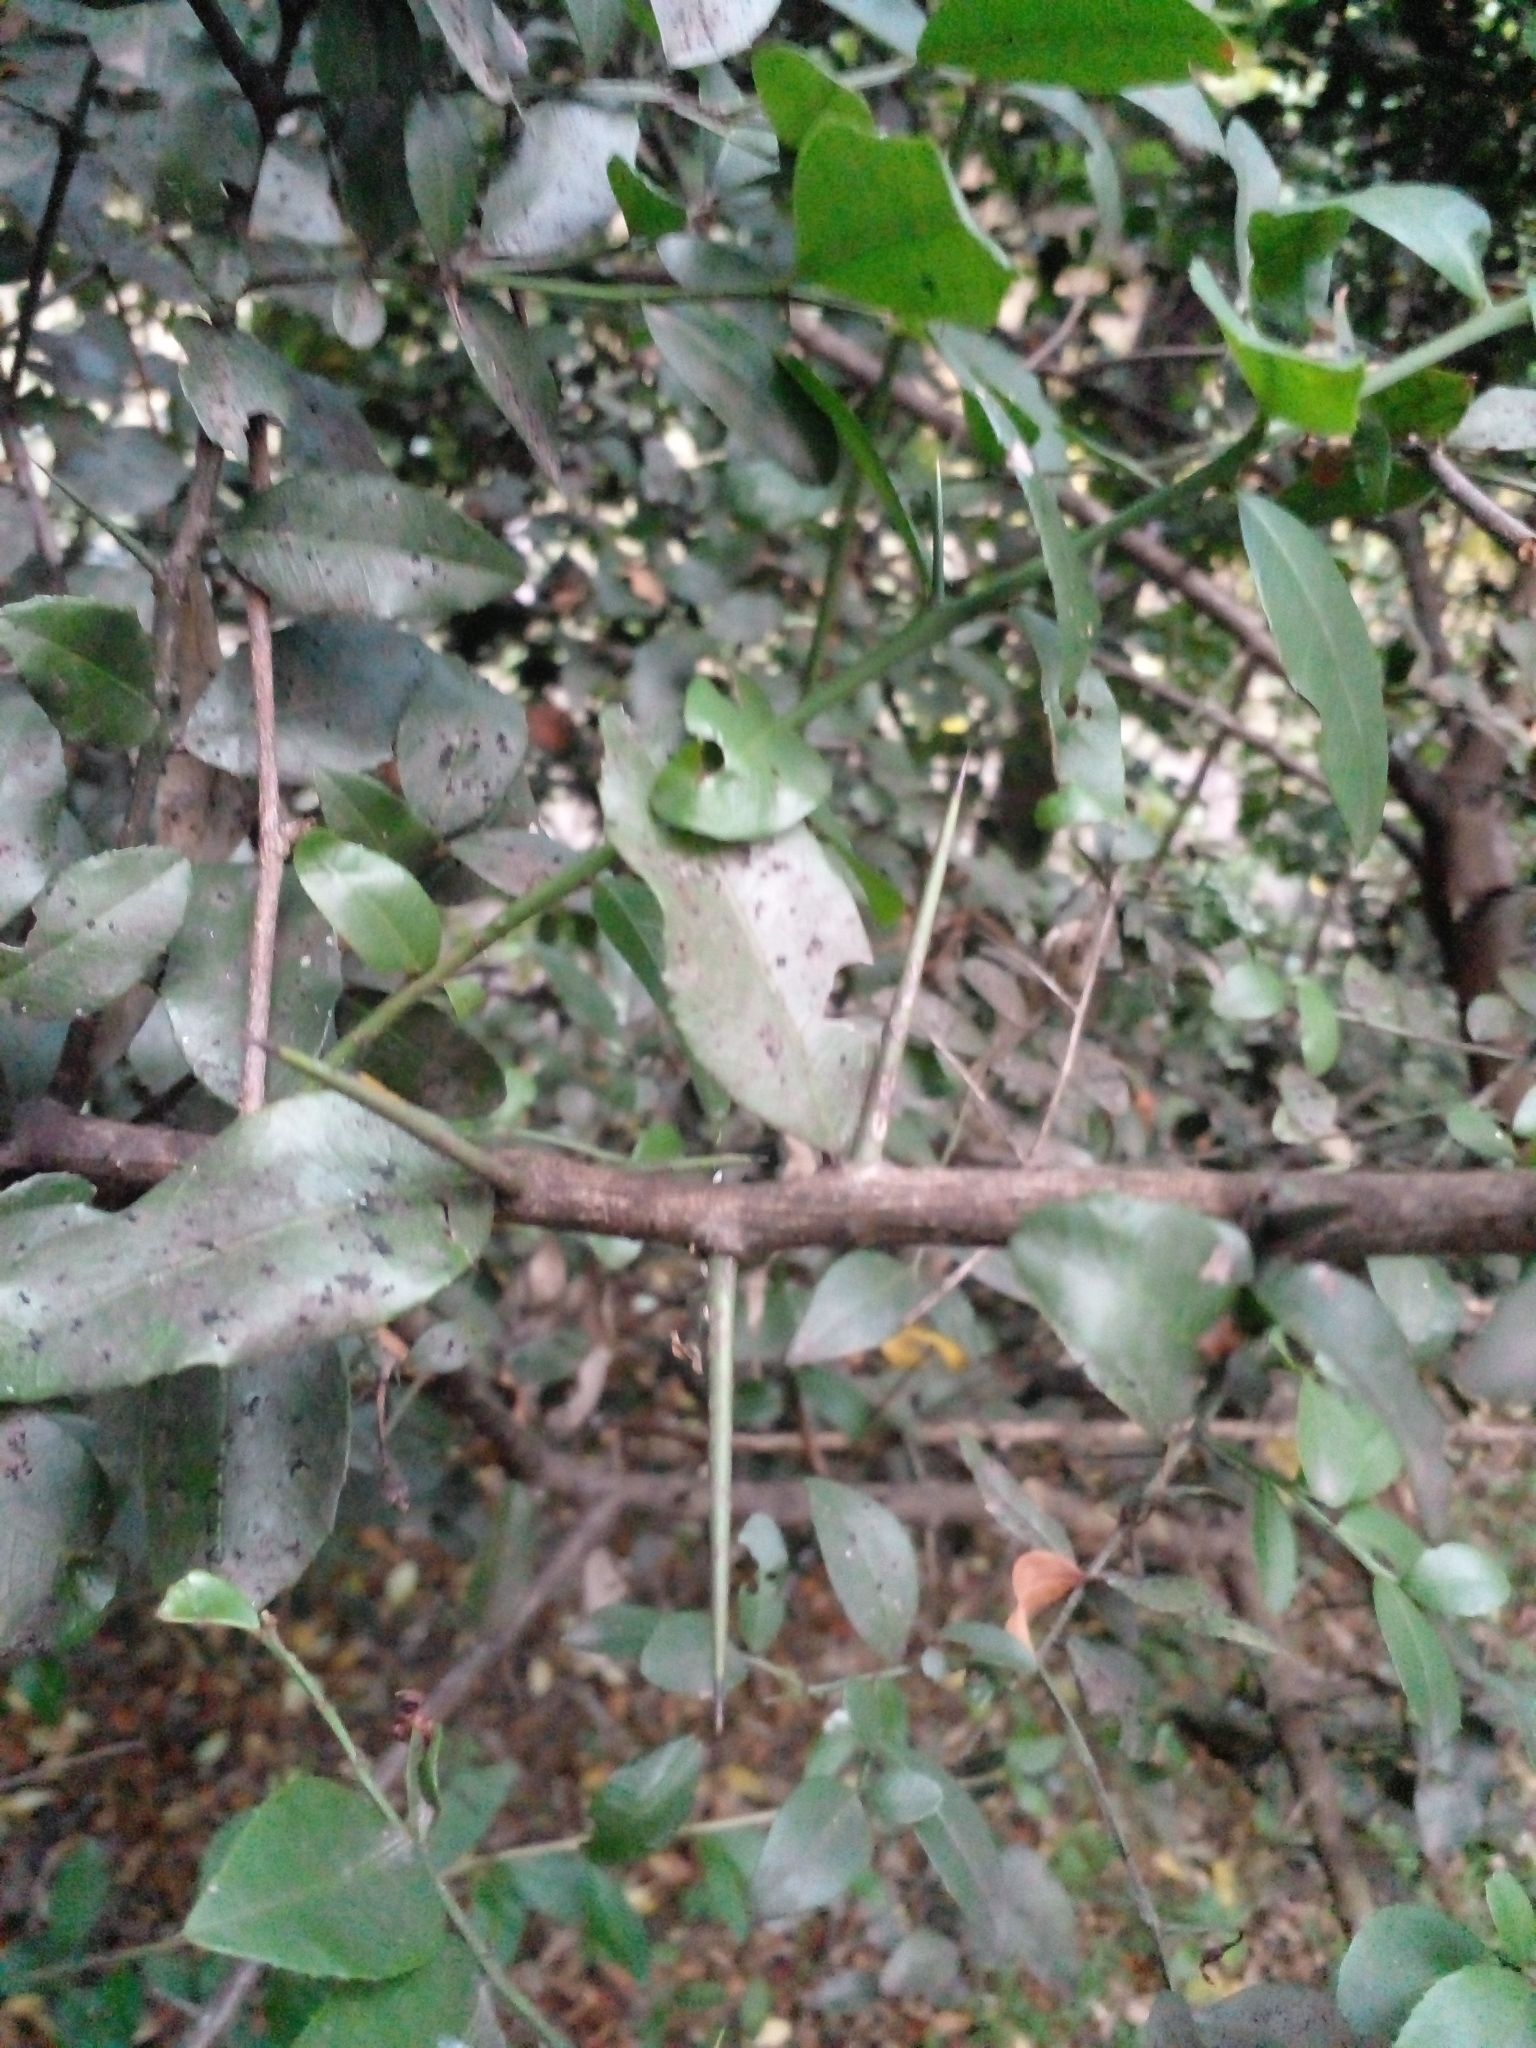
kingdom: Plantae
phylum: Tracheophyta
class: Magnoliopsida
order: Rosales
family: Rhamnaceae
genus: Scutia
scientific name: Scutia buxifolia
